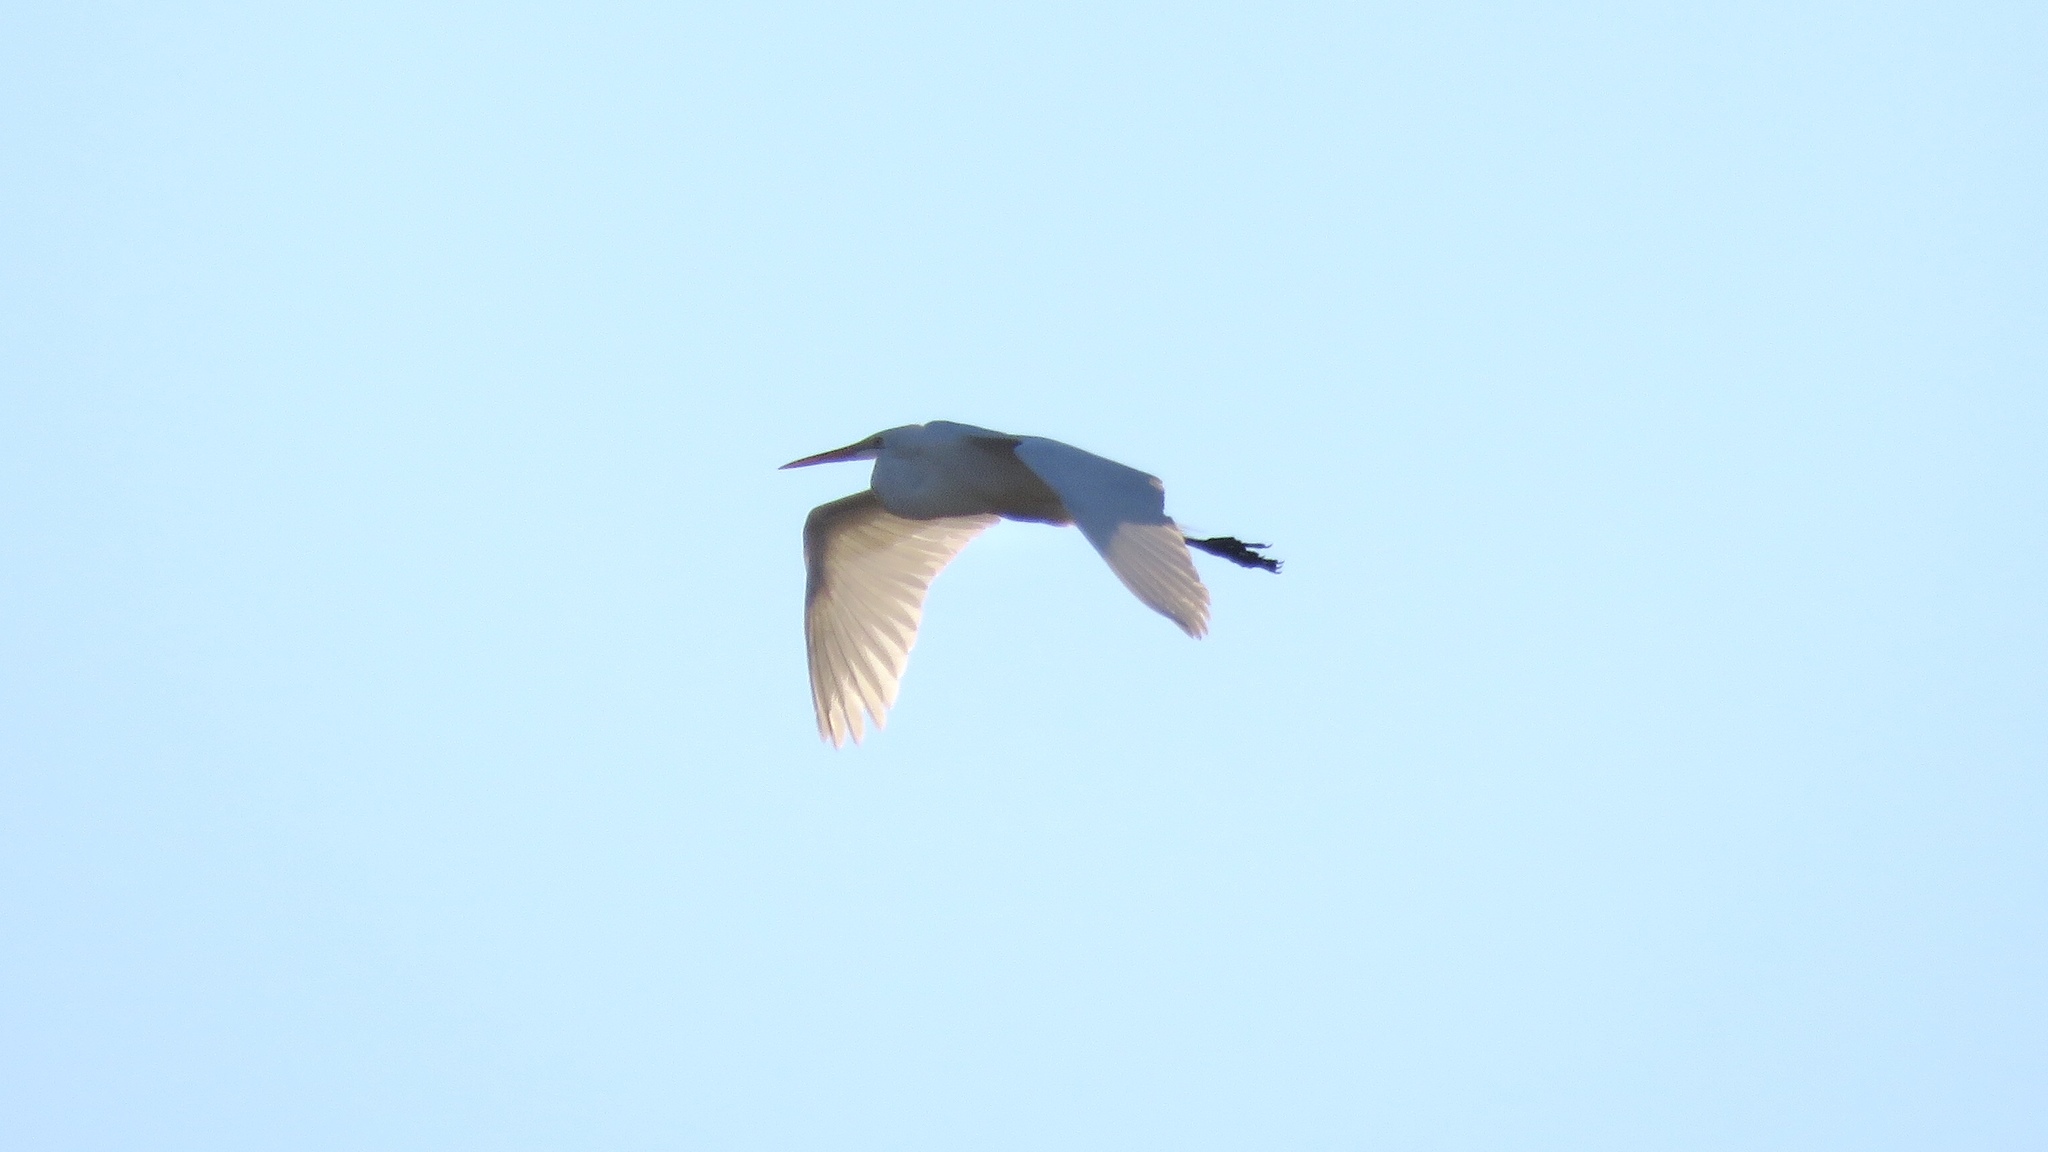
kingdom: Animalia
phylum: Chordata
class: Aves
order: Pelecaniformes
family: Ardeidae
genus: Ardea
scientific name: Ardea alba
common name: Great egret
